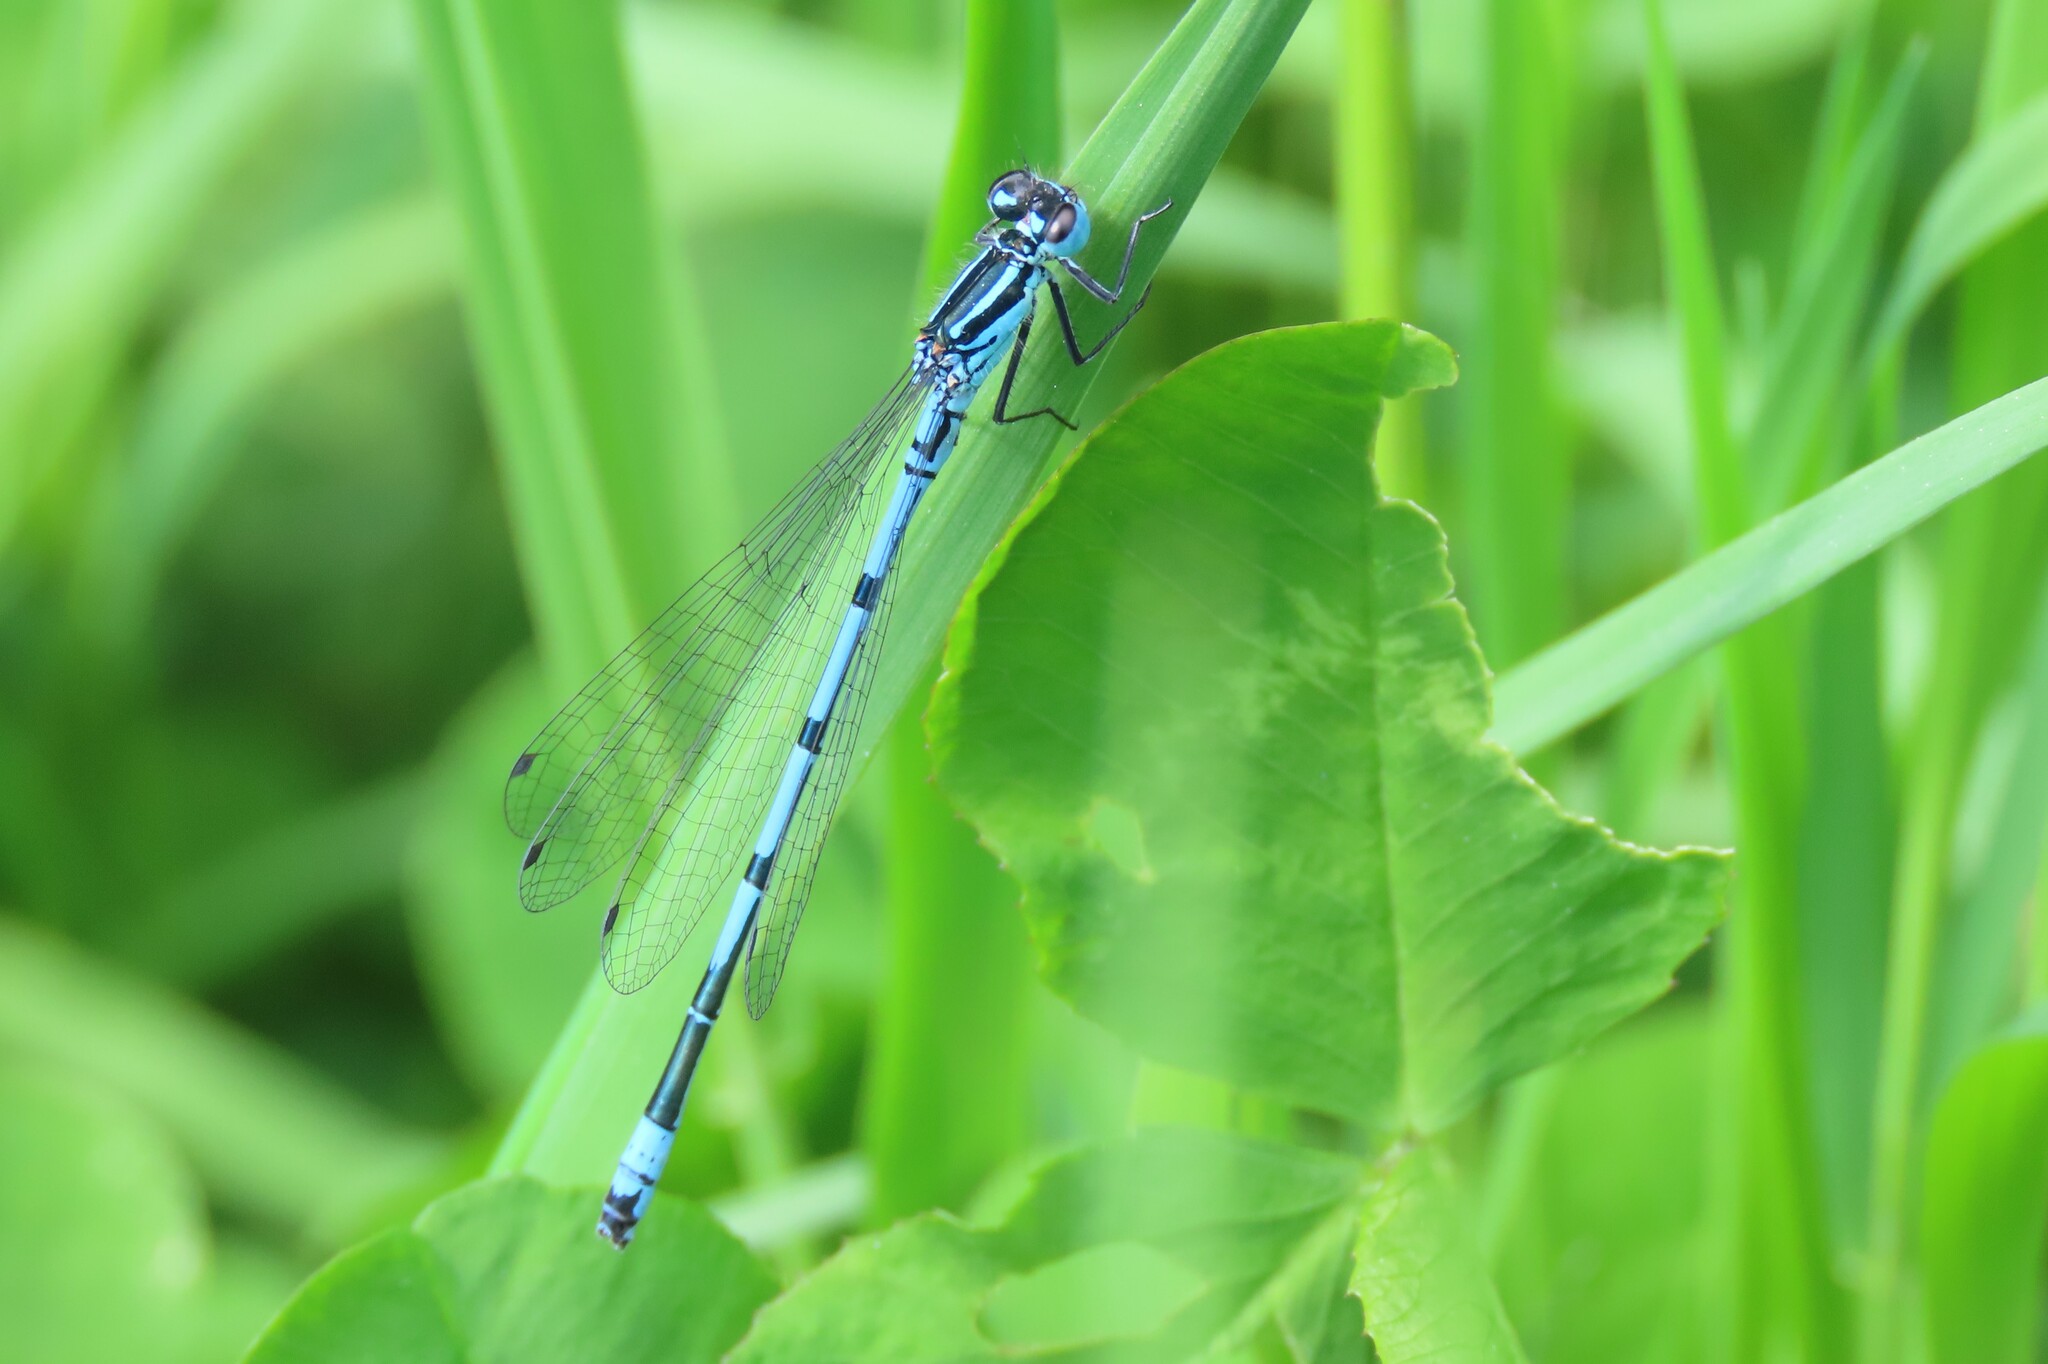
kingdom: Animalia
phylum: Arthropoda
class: Insecta
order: Odonata
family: Coenagrionidae
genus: Coenagrion
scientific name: Coenagrion puella
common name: Azure damselfly
